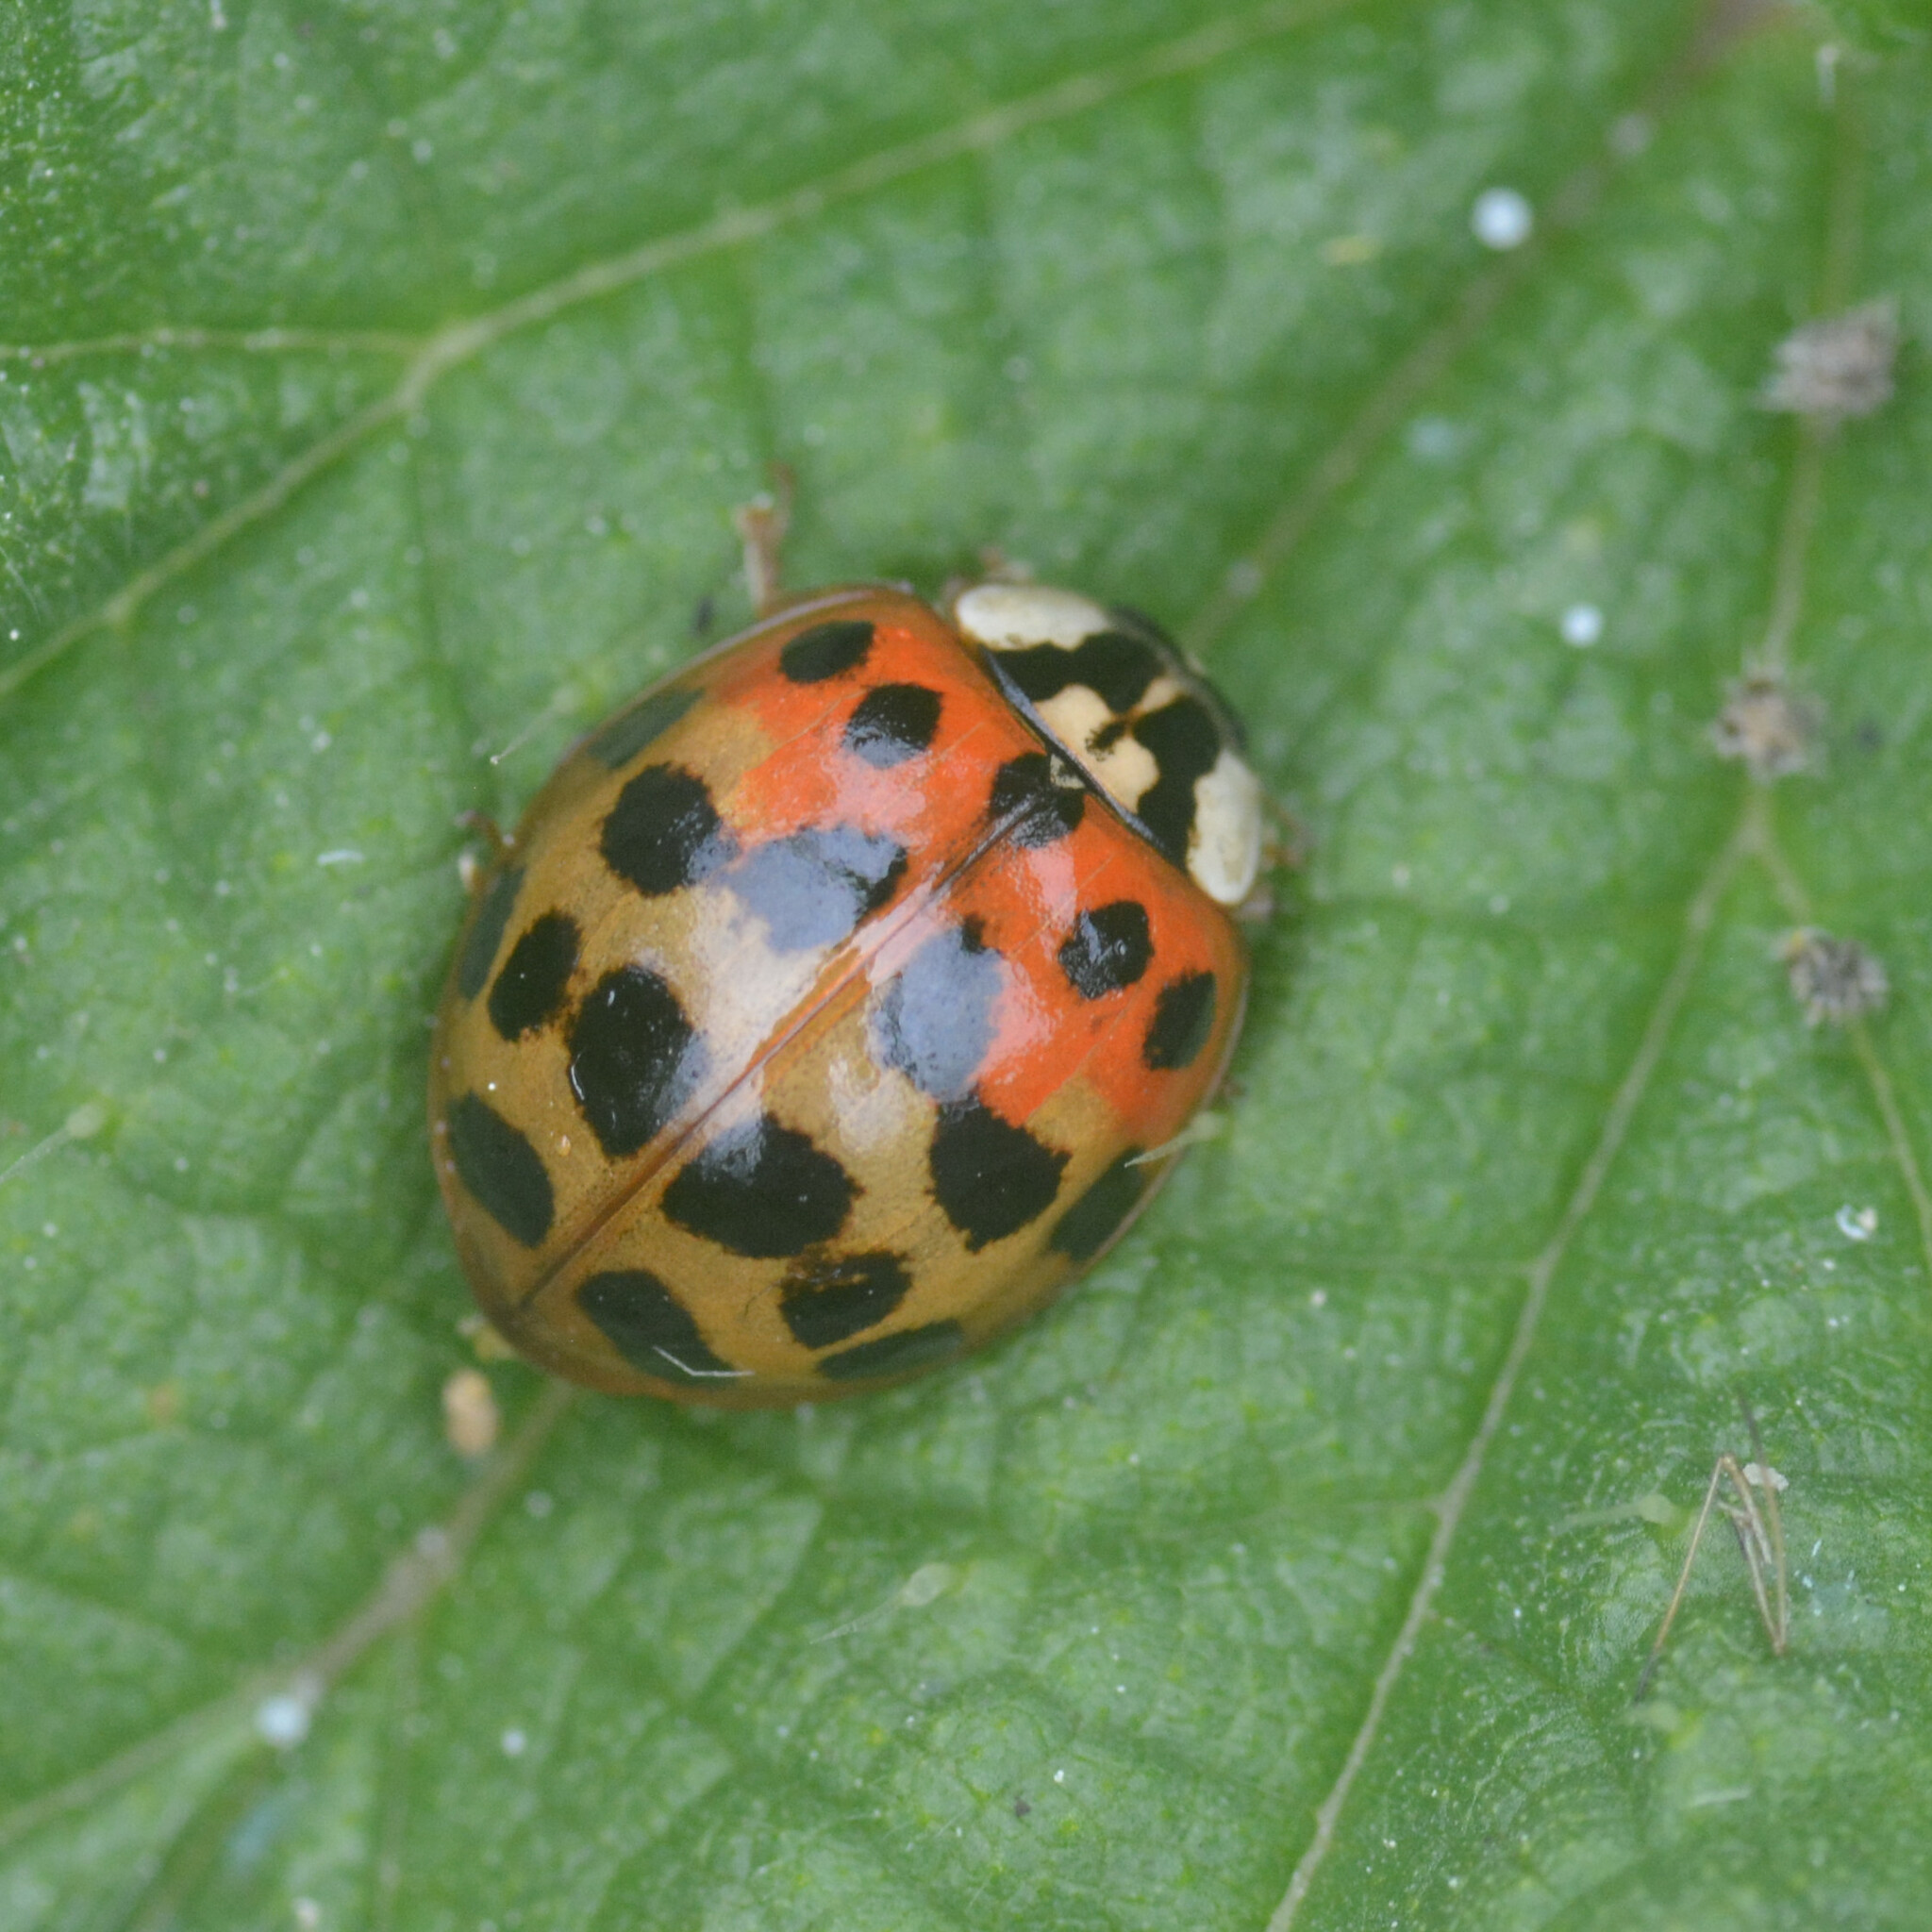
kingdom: Animalia
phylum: Arthropoda
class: Insecta
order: Coleoptera
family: Coccinellidae
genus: Harmonia
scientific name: Harmonia axyridis
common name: Harlequin ladybird
